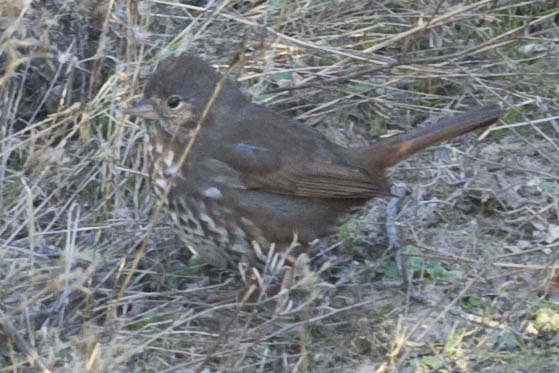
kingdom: Animalia
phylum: Chordata
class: Aves
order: Passeriformes
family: Passerellidae
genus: Passerella
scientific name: Passerella iliaca
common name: Fox sparrow
